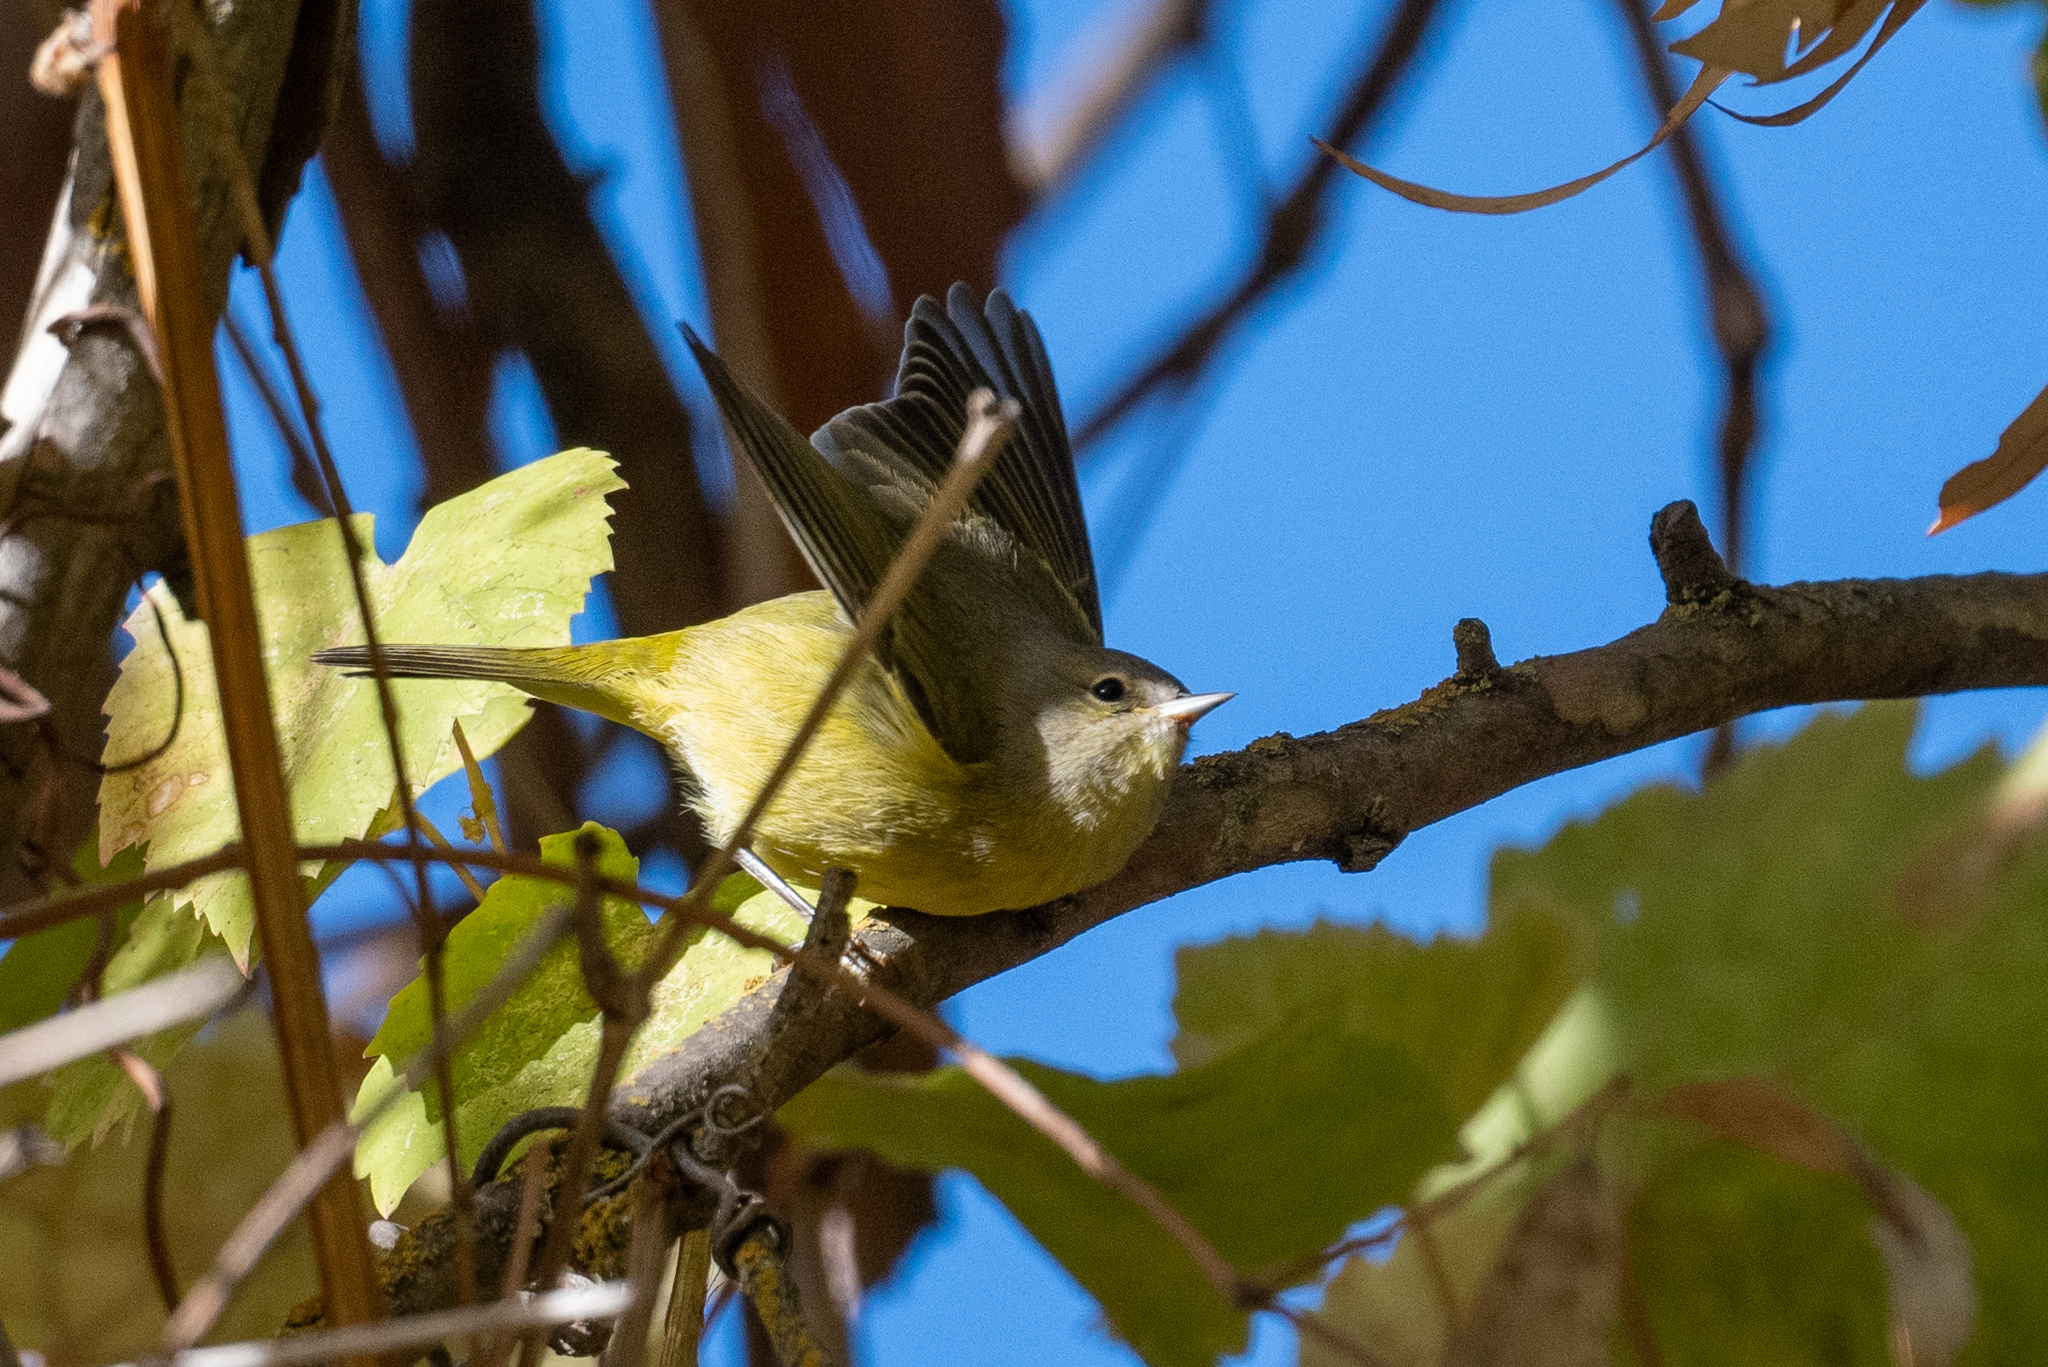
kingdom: Animalia
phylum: Chordata
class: Aves
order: Passeriformes
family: Parulidae
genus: Leiothlypis
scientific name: Leiothlypis celata
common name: Orange-crowned warbler
